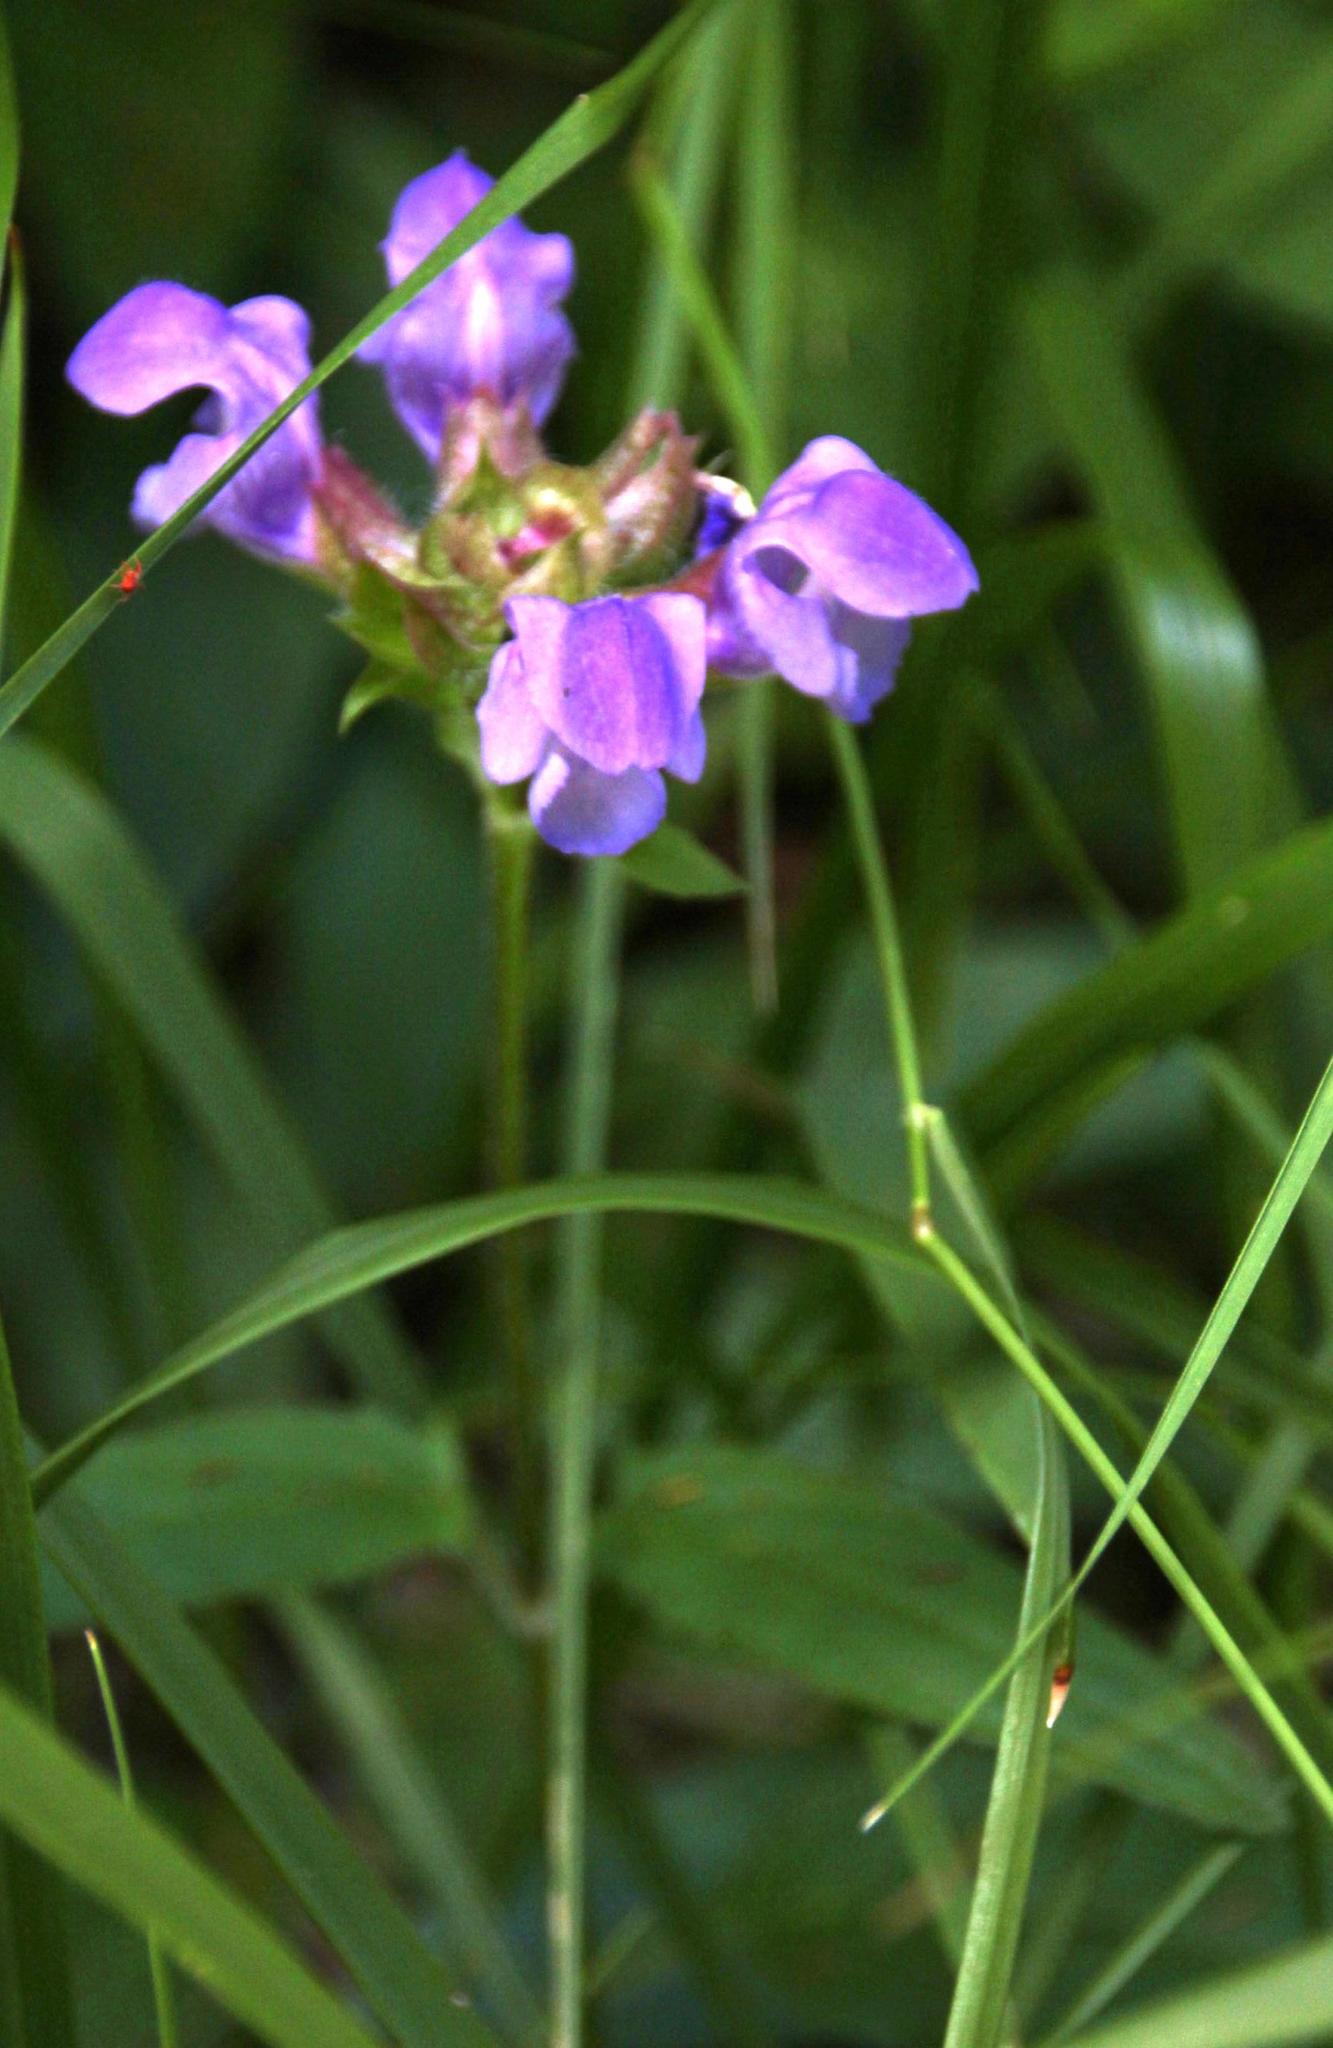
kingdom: Plantae
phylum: Tracheophyta
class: Magnoliopsida
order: Lamiales
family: Lamiaceae
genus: Prunella
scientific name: Prunella grandiflora
